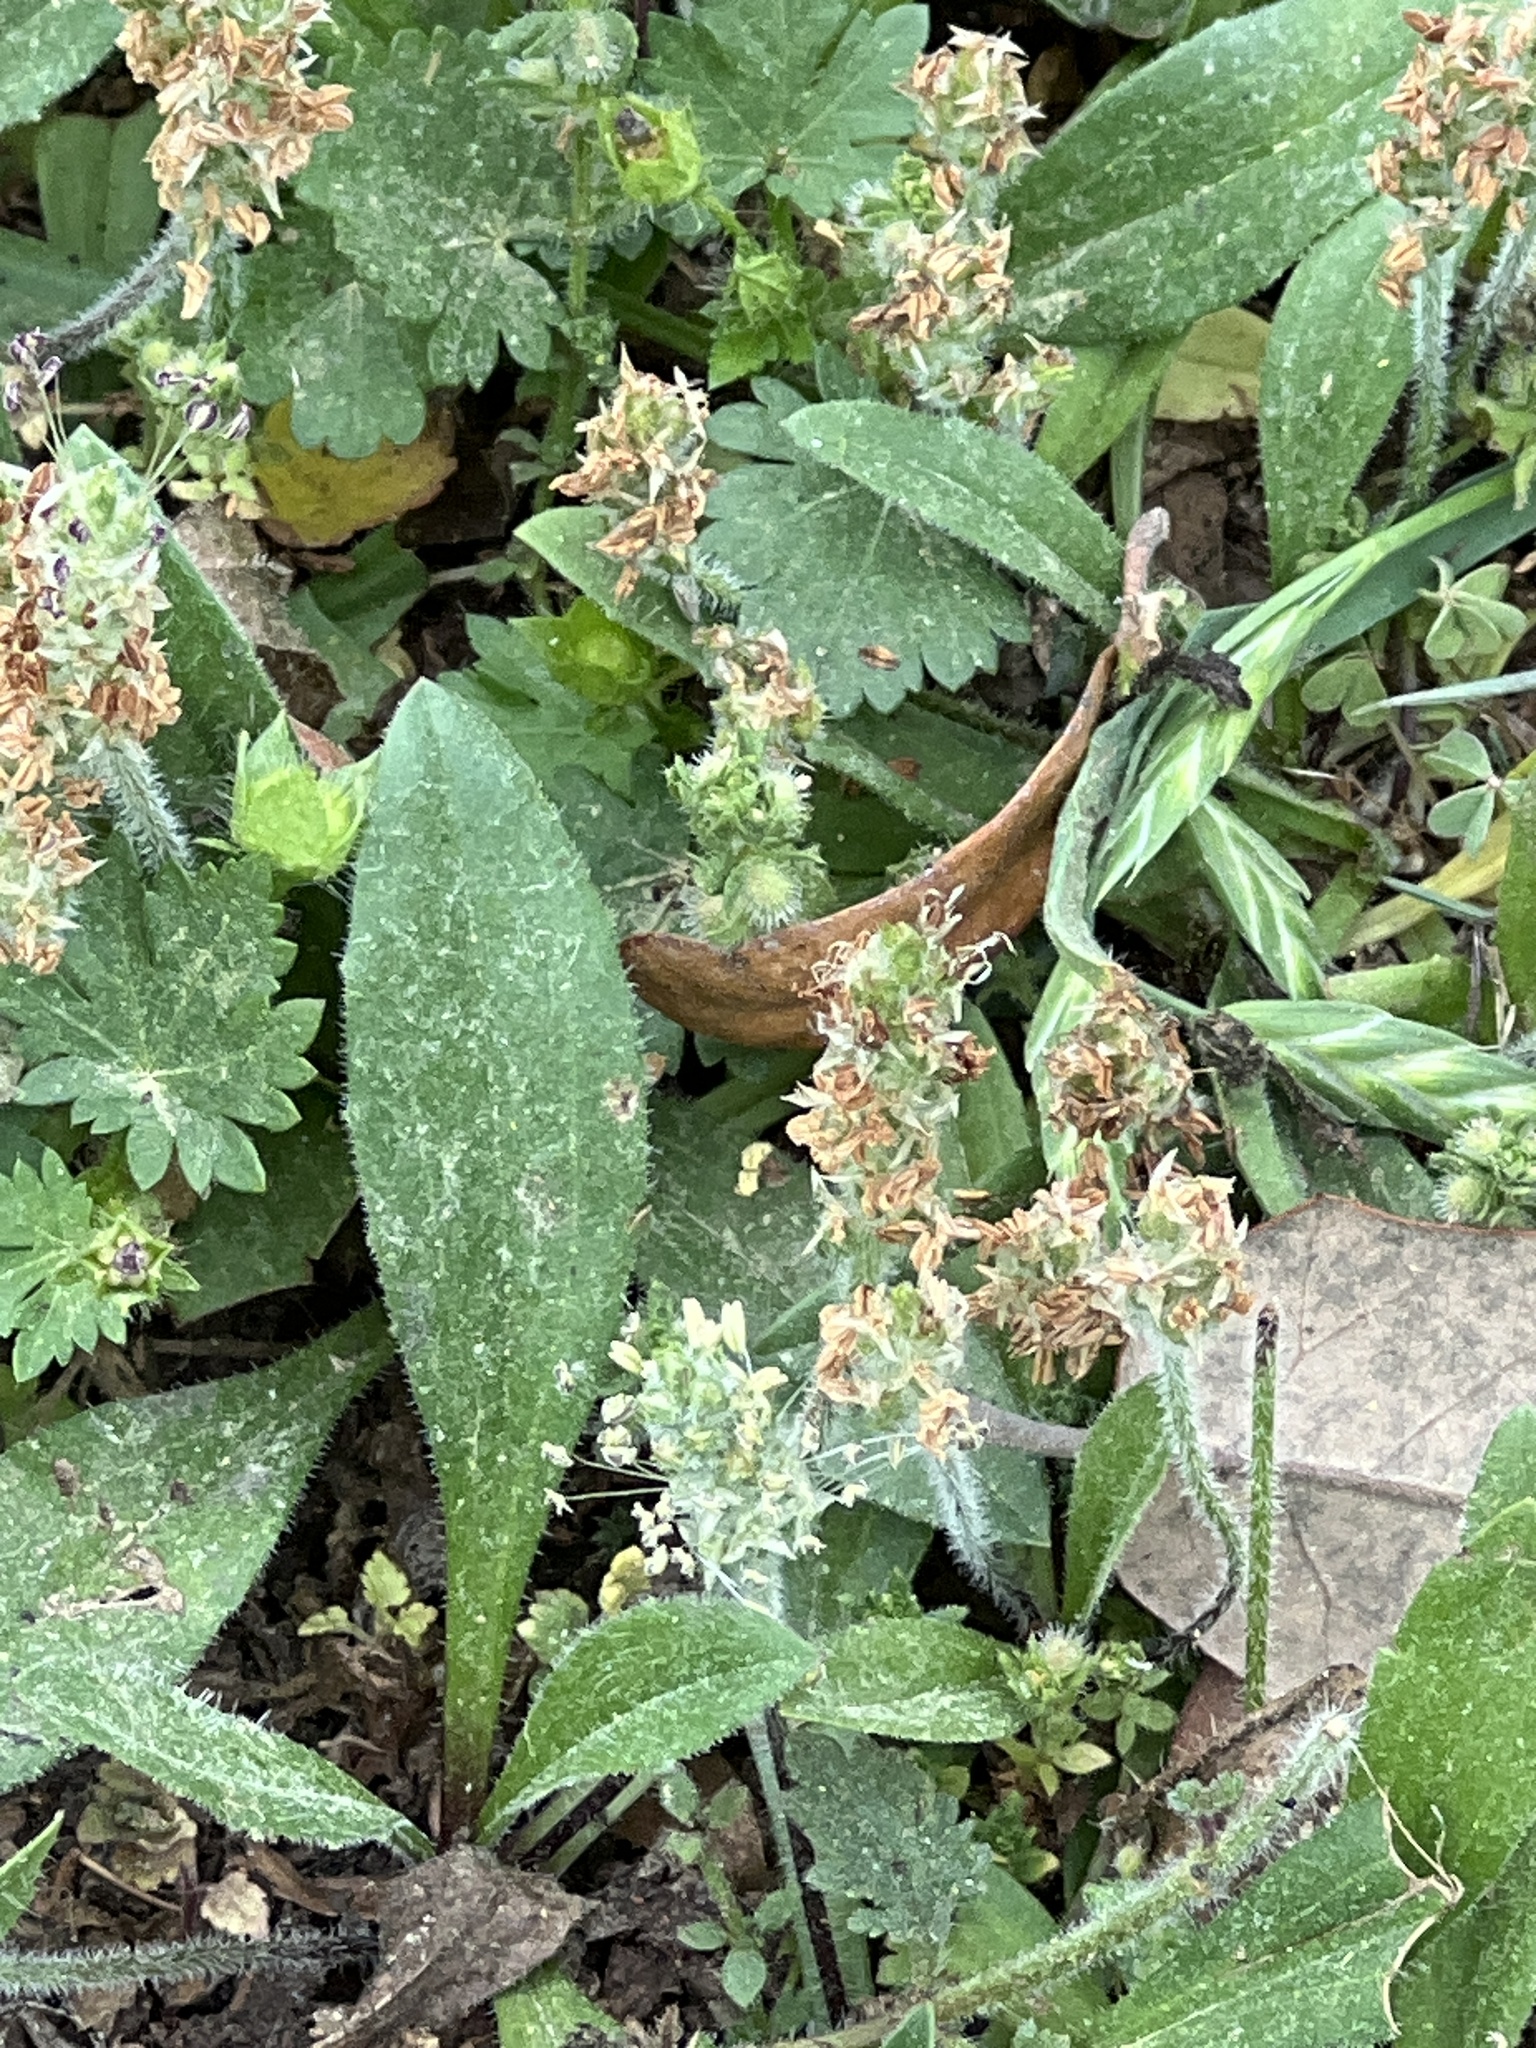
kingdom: Plantae
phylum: Tracheophyta
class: Magnoliopsida
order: Lamiales
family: Plantaginaceae
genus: Plantago
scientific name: Plantago rhodosperma
